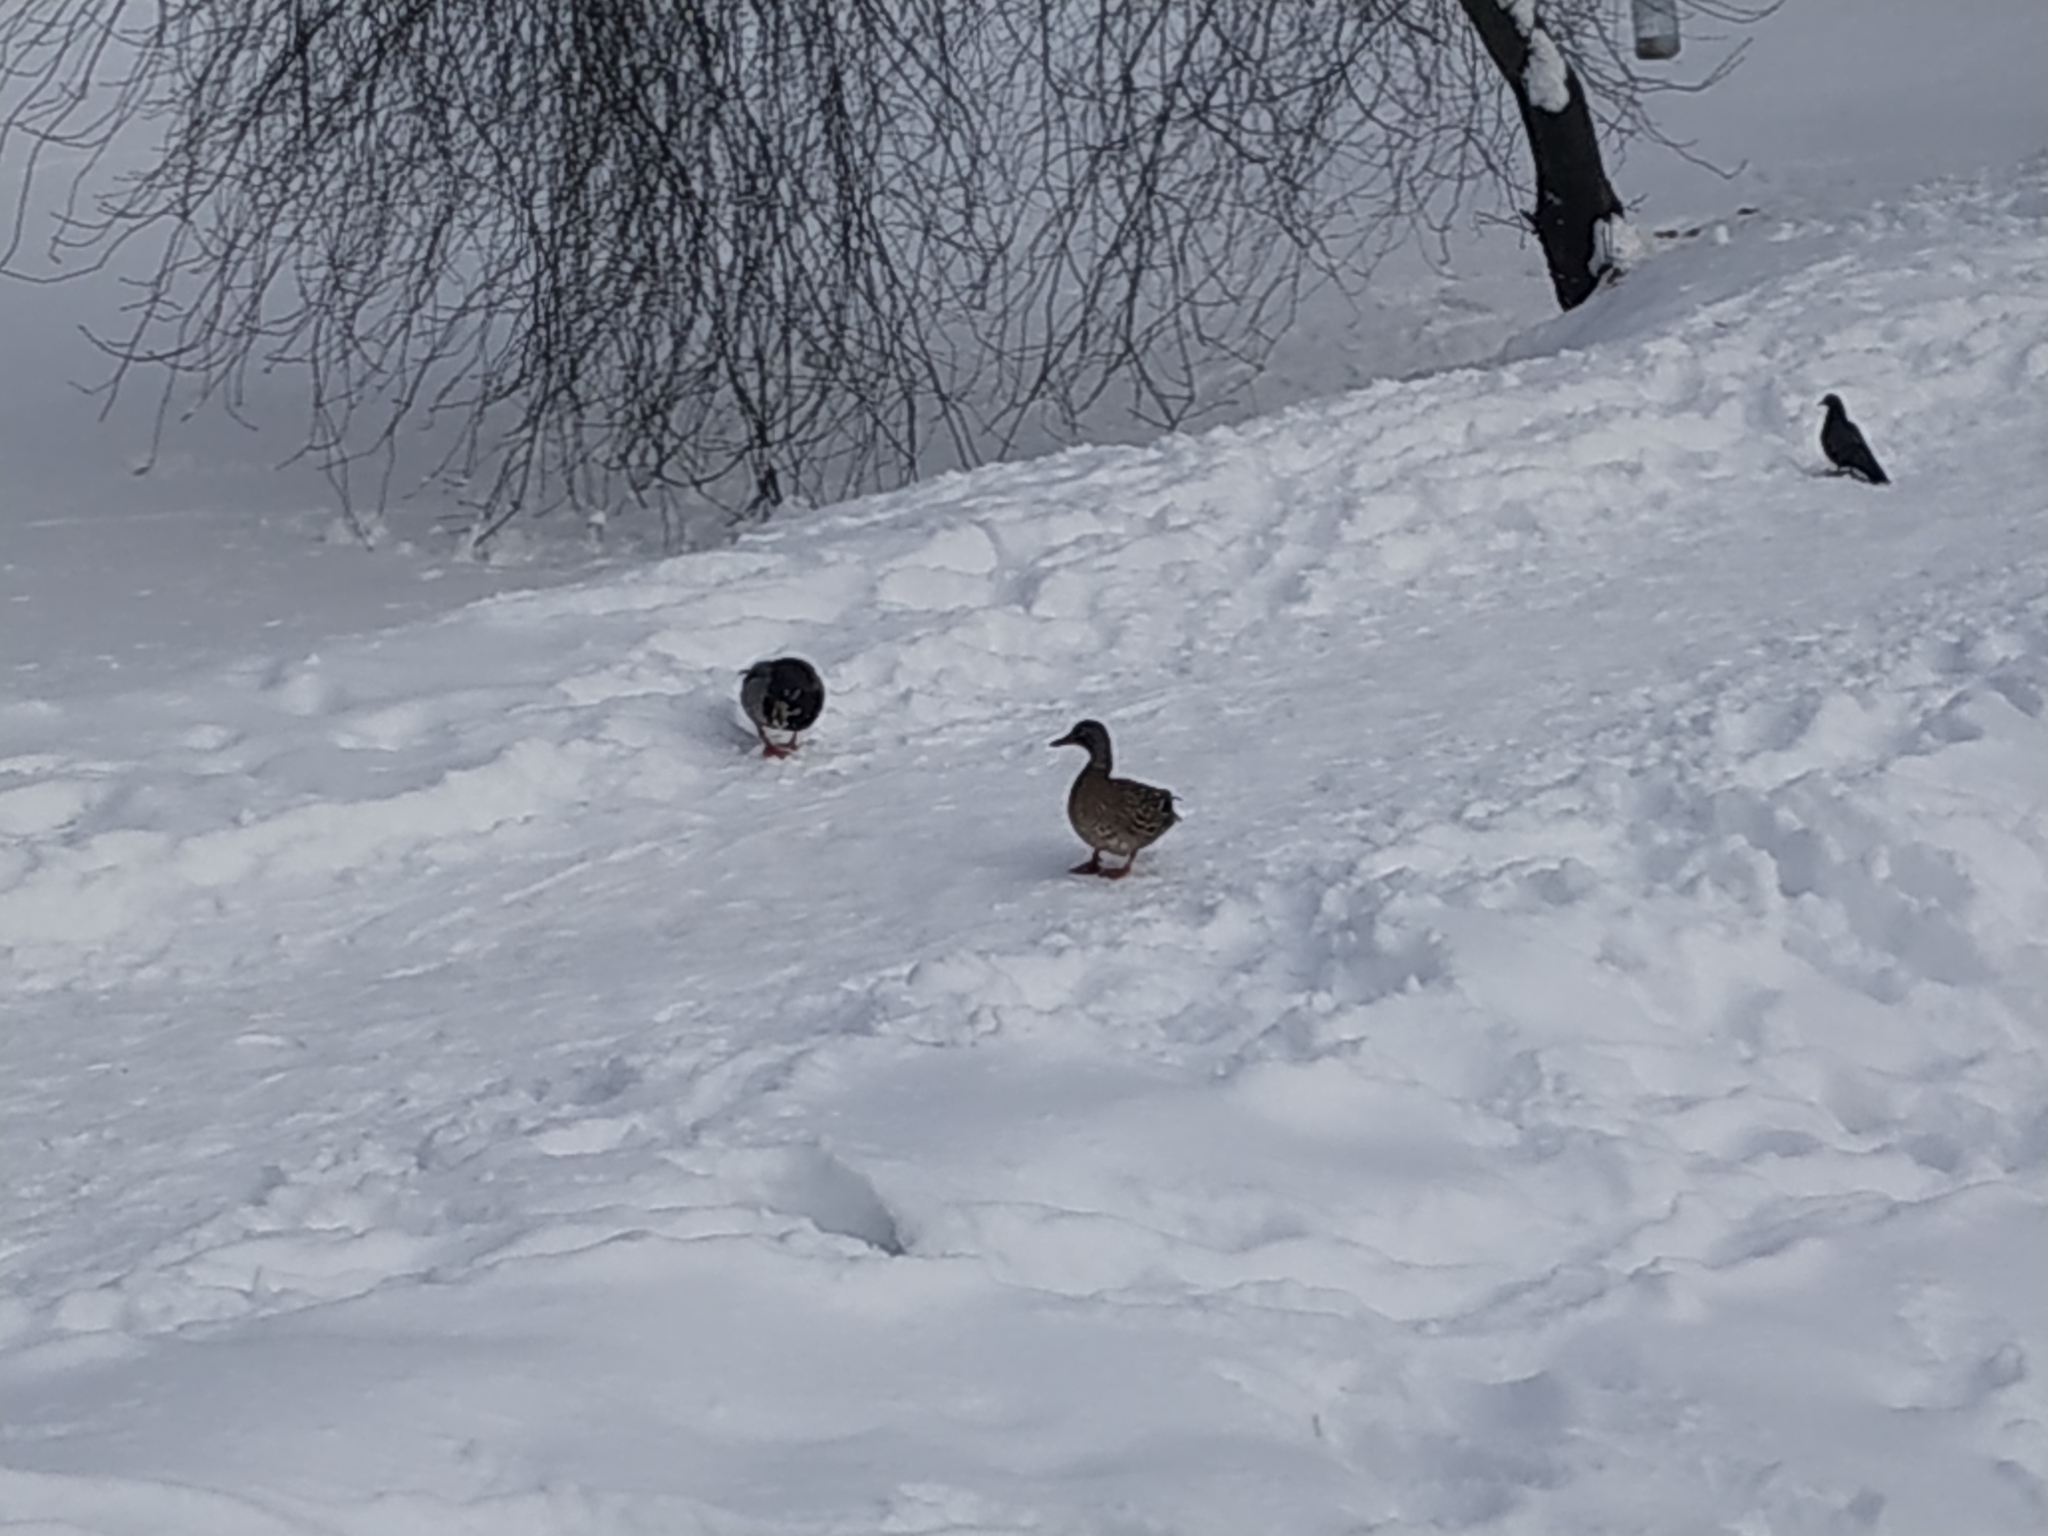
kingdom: Animalia
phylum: Chordata
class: Aves
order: Anseriformes
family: Anatidae
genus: Anas
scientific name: Anas platyrhynchos
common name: Mallard
